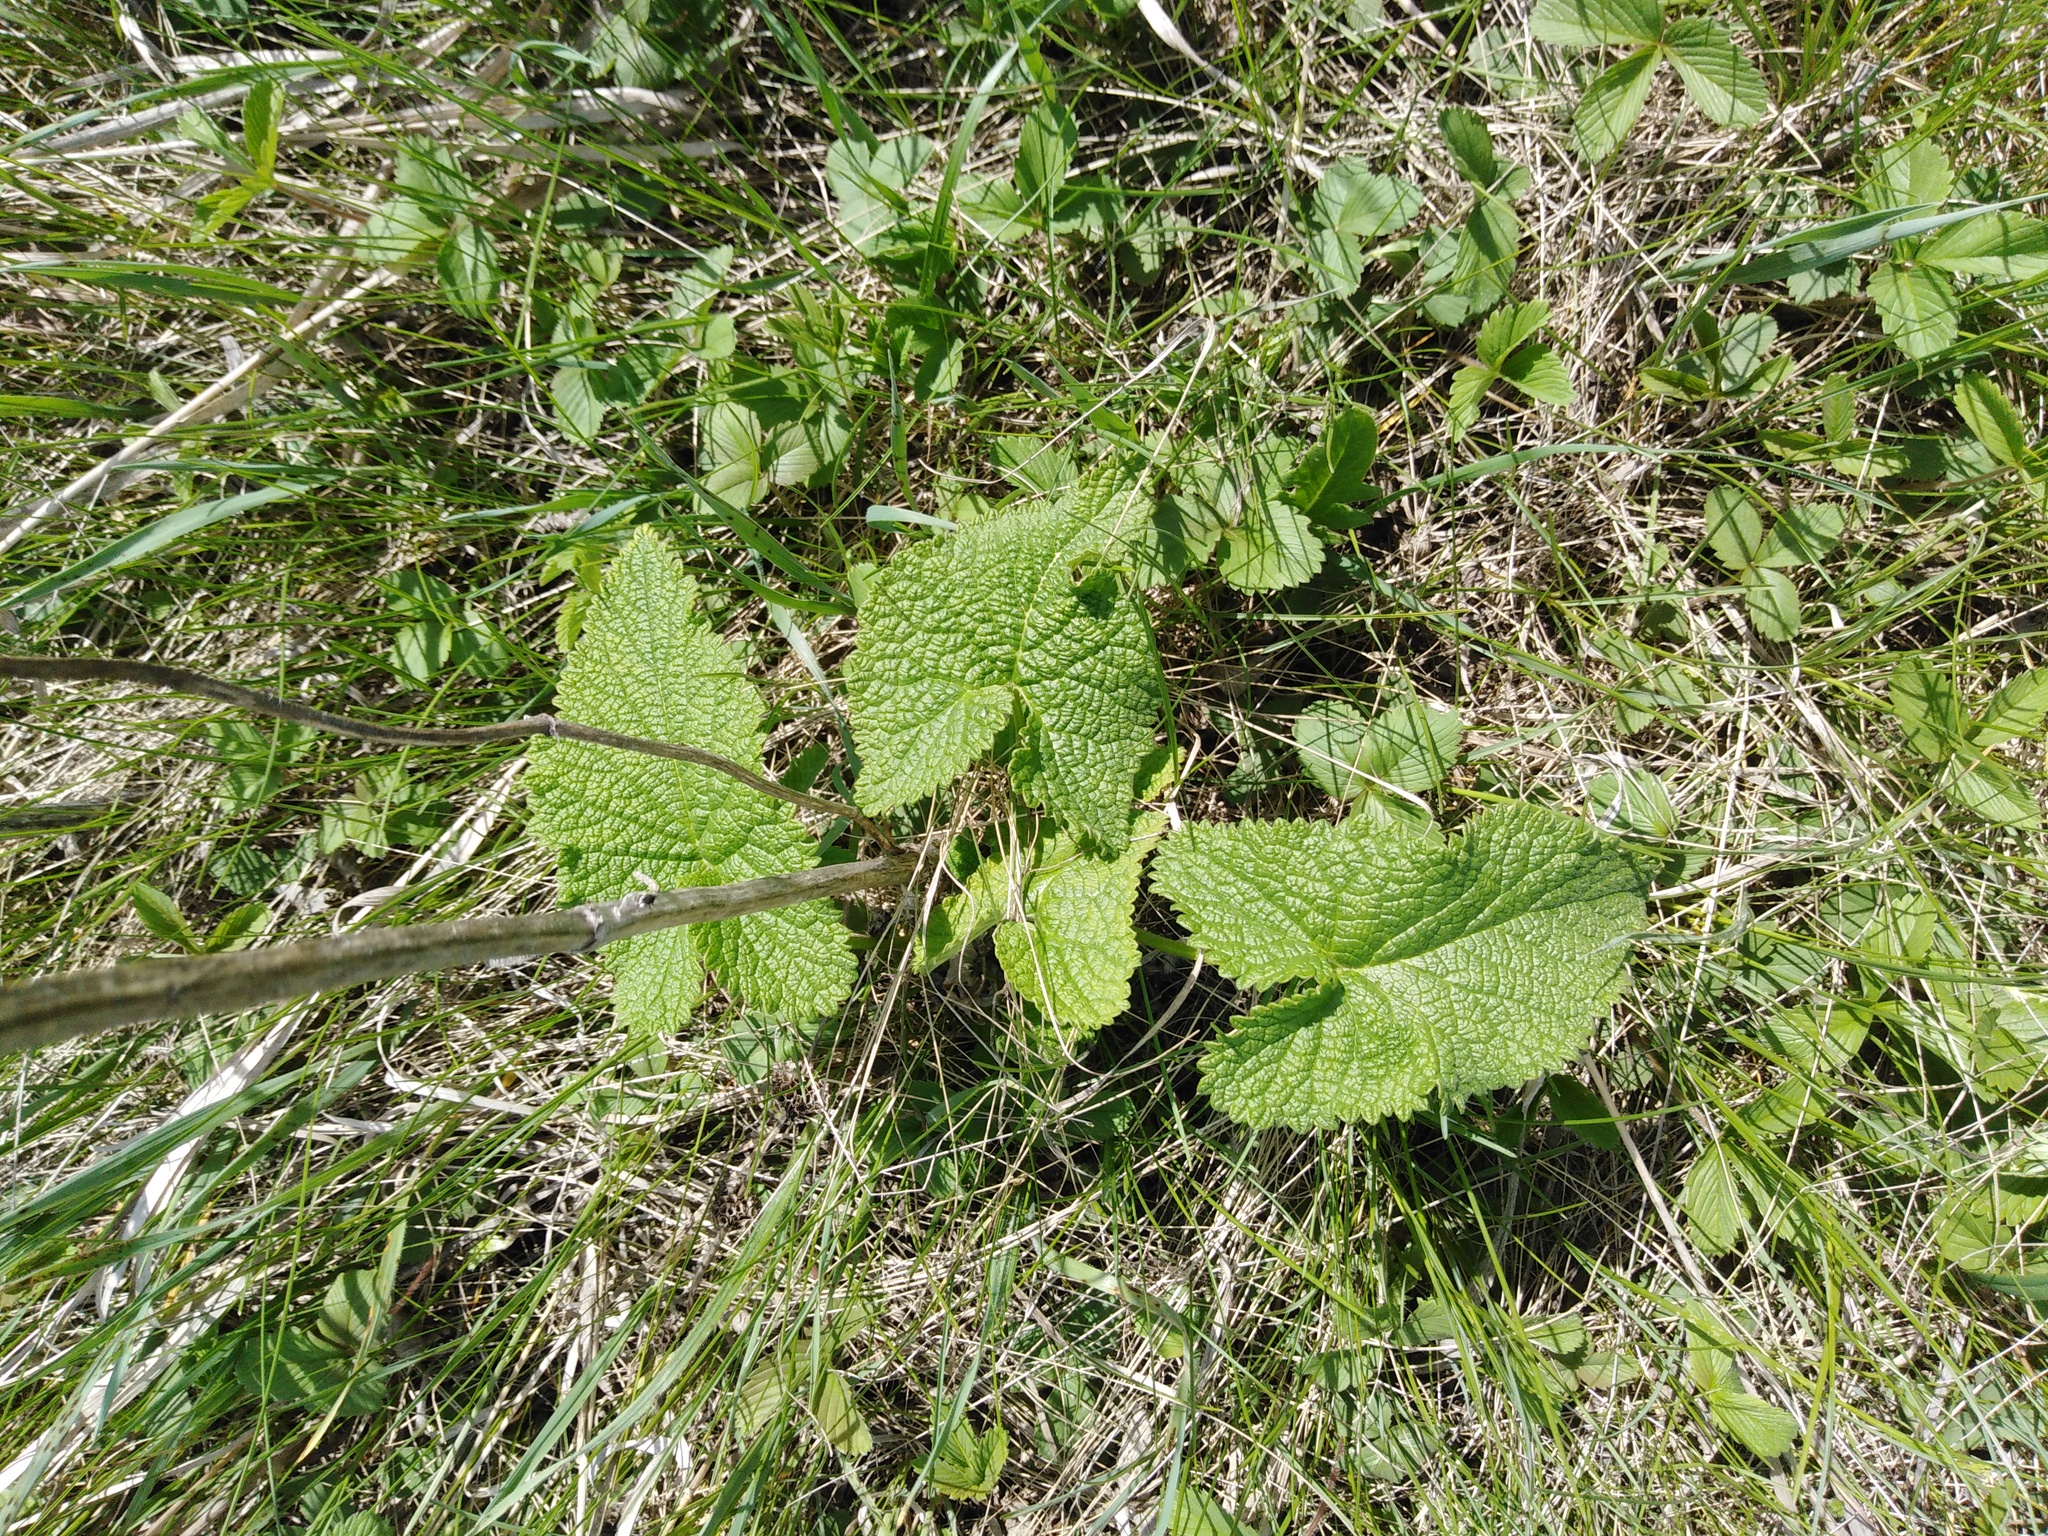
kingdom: Plantae
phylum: Tracheophyta
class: Magnoliopsida
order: Lamiales
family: Lamiaceae
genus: Phlomoides
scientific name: Phlomoides tuberosa
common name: Tuberous jerusalem sage
